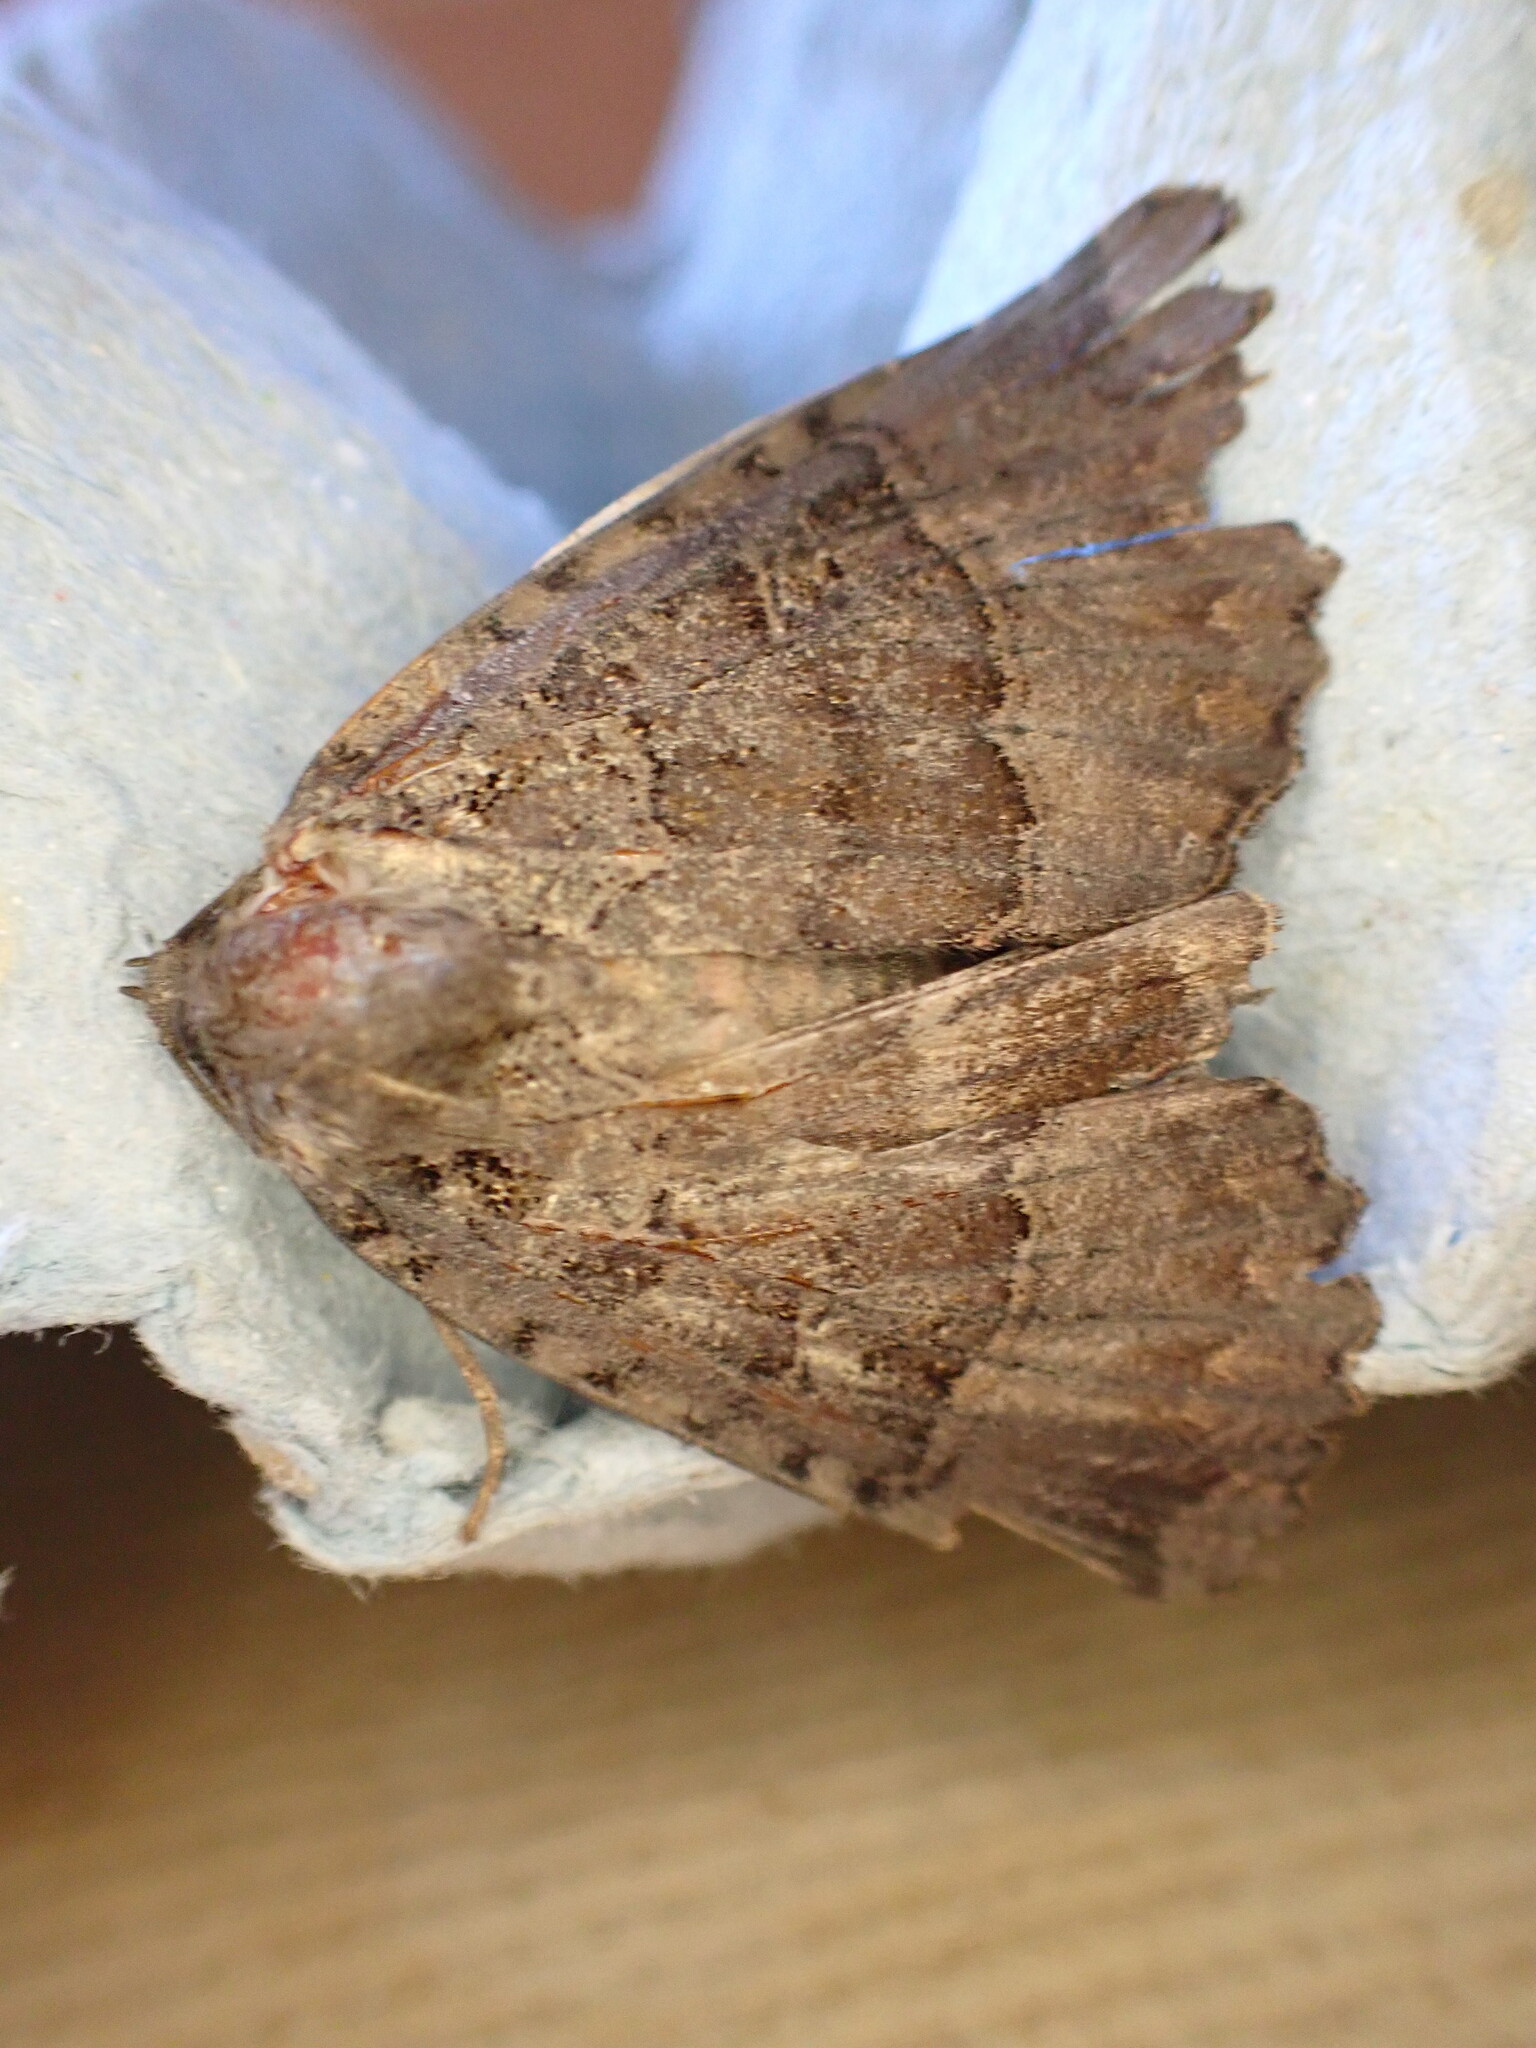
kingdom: Animalia
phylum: Arthropoda
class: Insecta
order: Lepidoptera
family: Noctuidae
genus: Mormo
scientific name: Mormo maura
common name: Old lady
